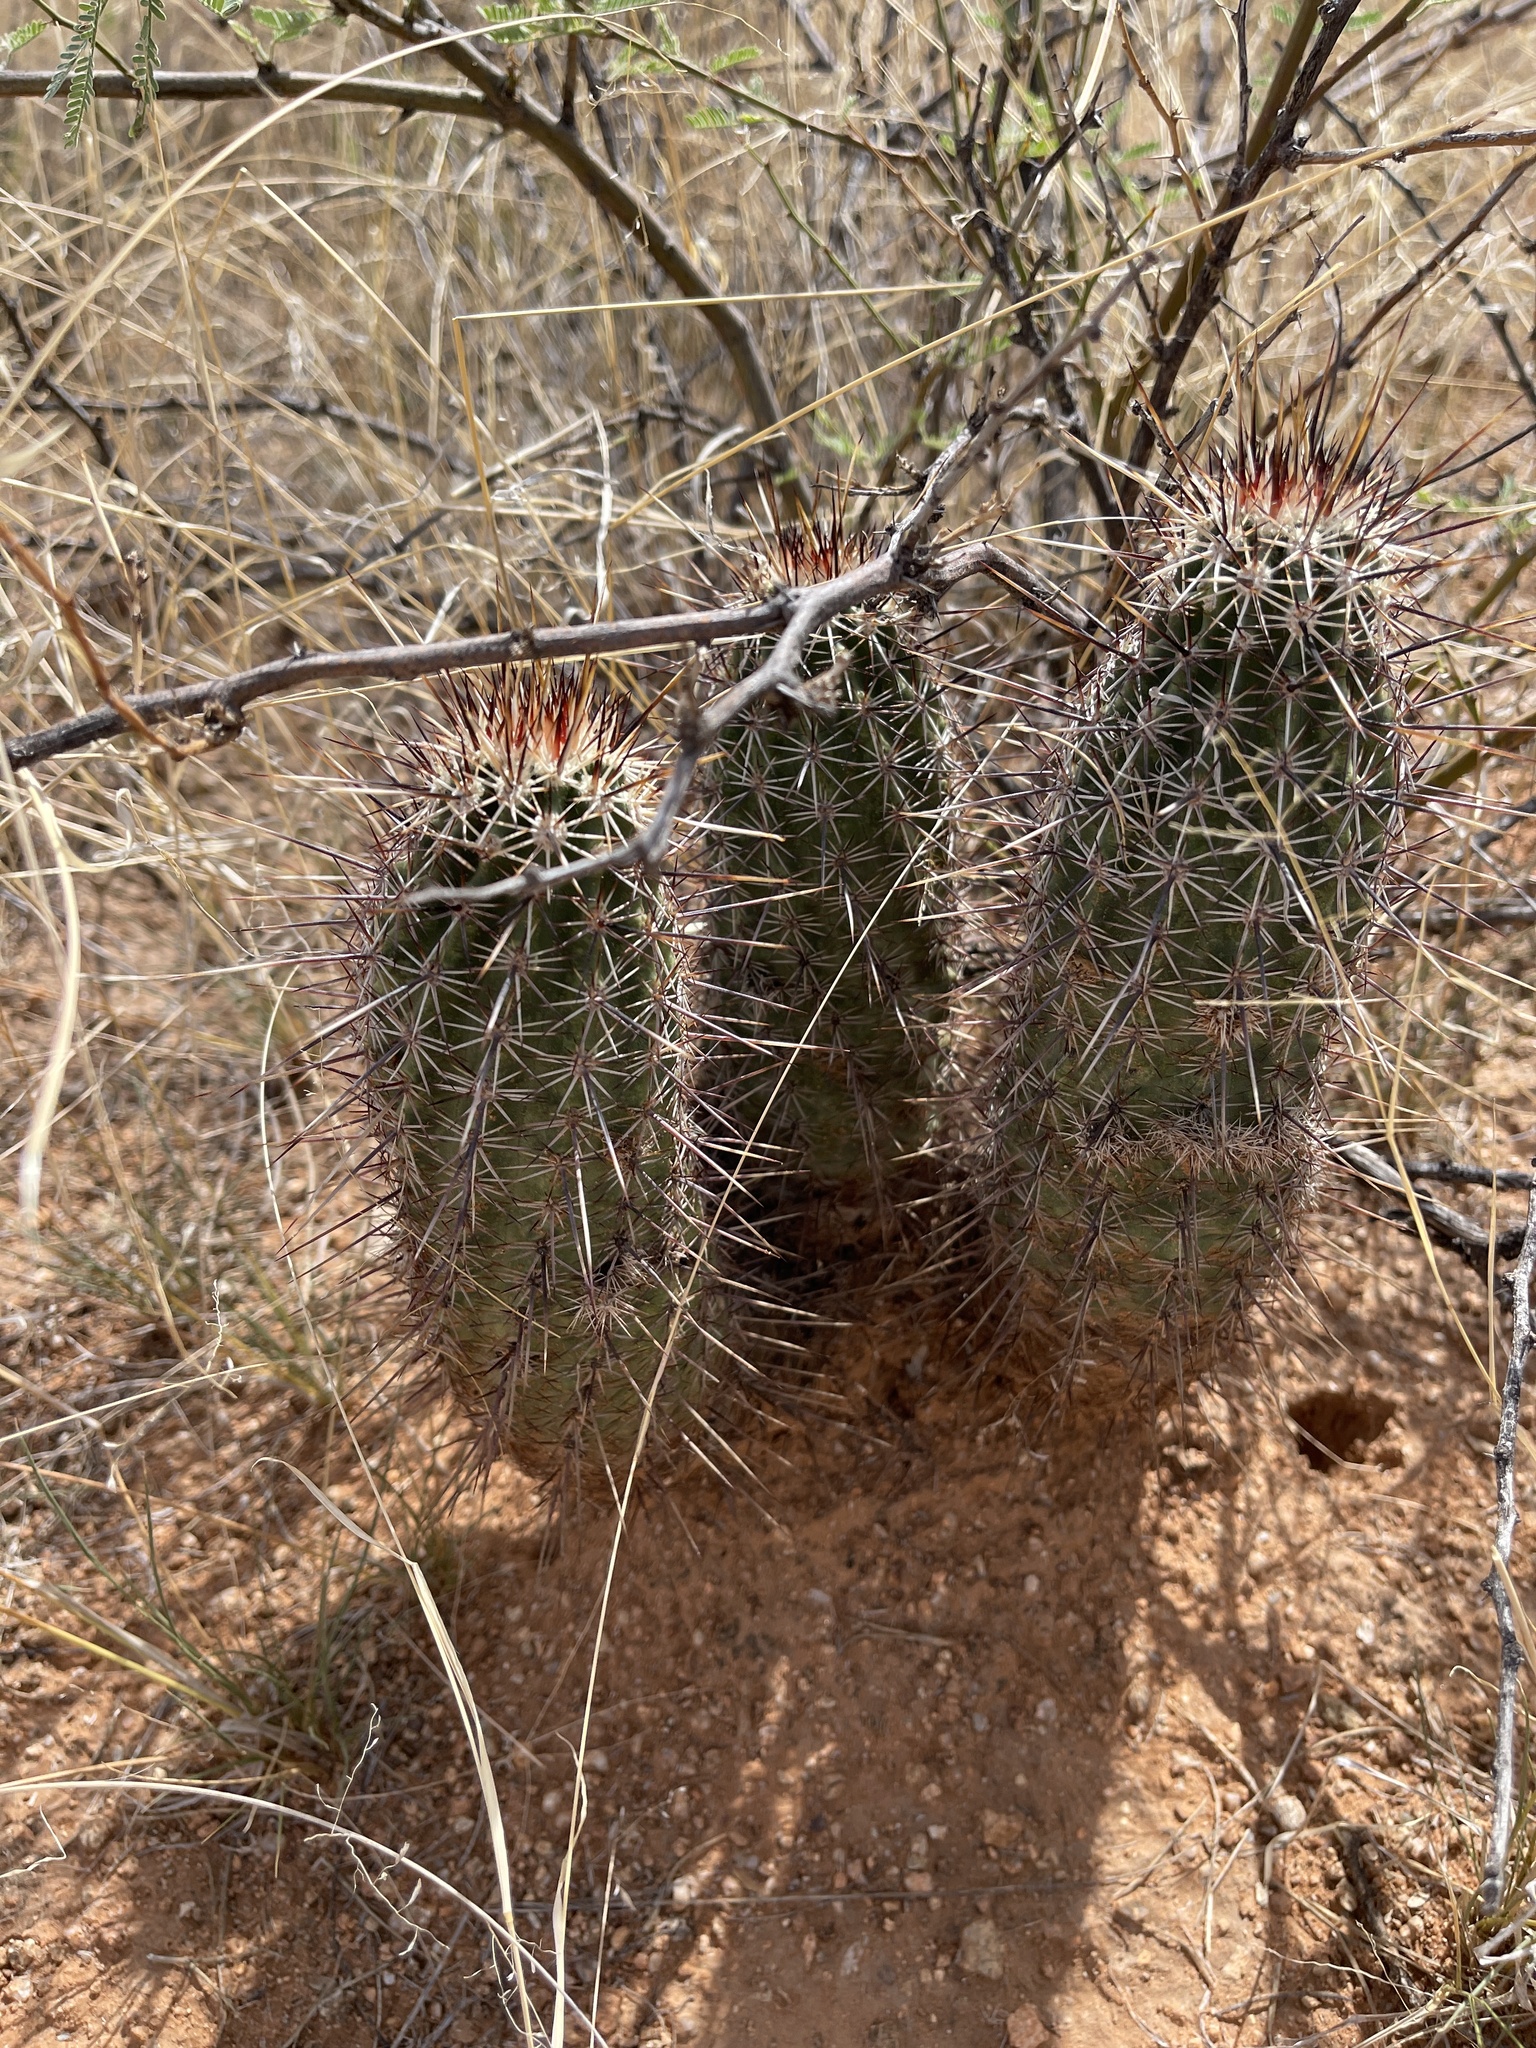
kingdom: Plantae
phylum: Tracheophyta
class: Magnoliopsida
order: Caryophyllales
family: Cactaceae
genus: Echinocereus
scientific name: Echinocereus fasciculatus
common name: Bundle hedgehog
